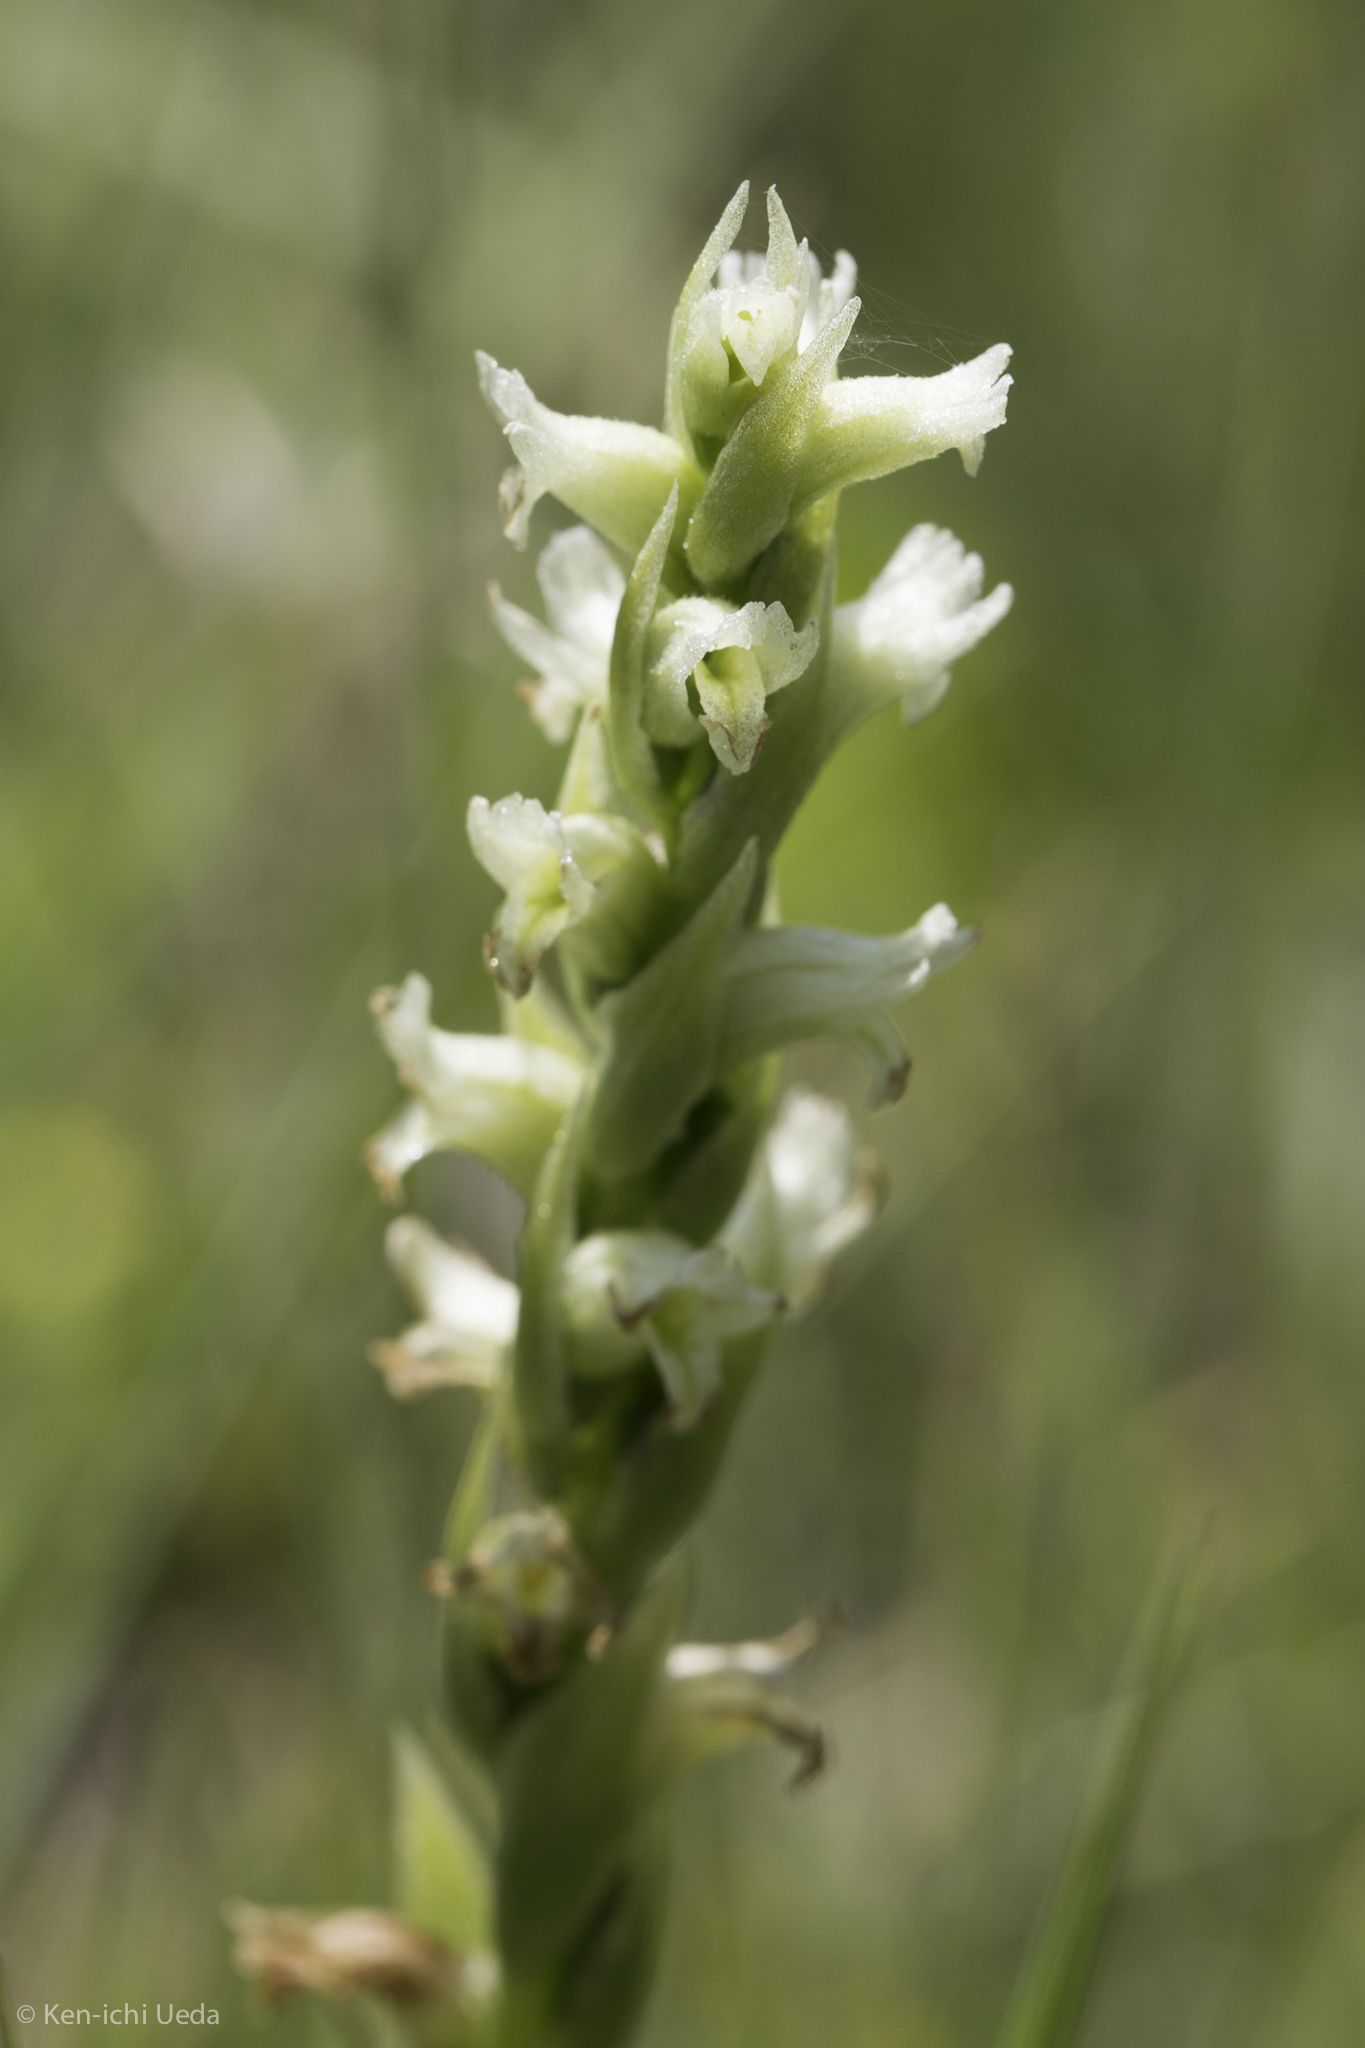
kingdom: Plantae
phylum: Tracheophyta
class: Liliopsida
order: Asparagales
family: Orchidaceae
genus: Spiranthes
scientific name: Spiranthes romanzoffiana
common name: Irish lady's-tresses
